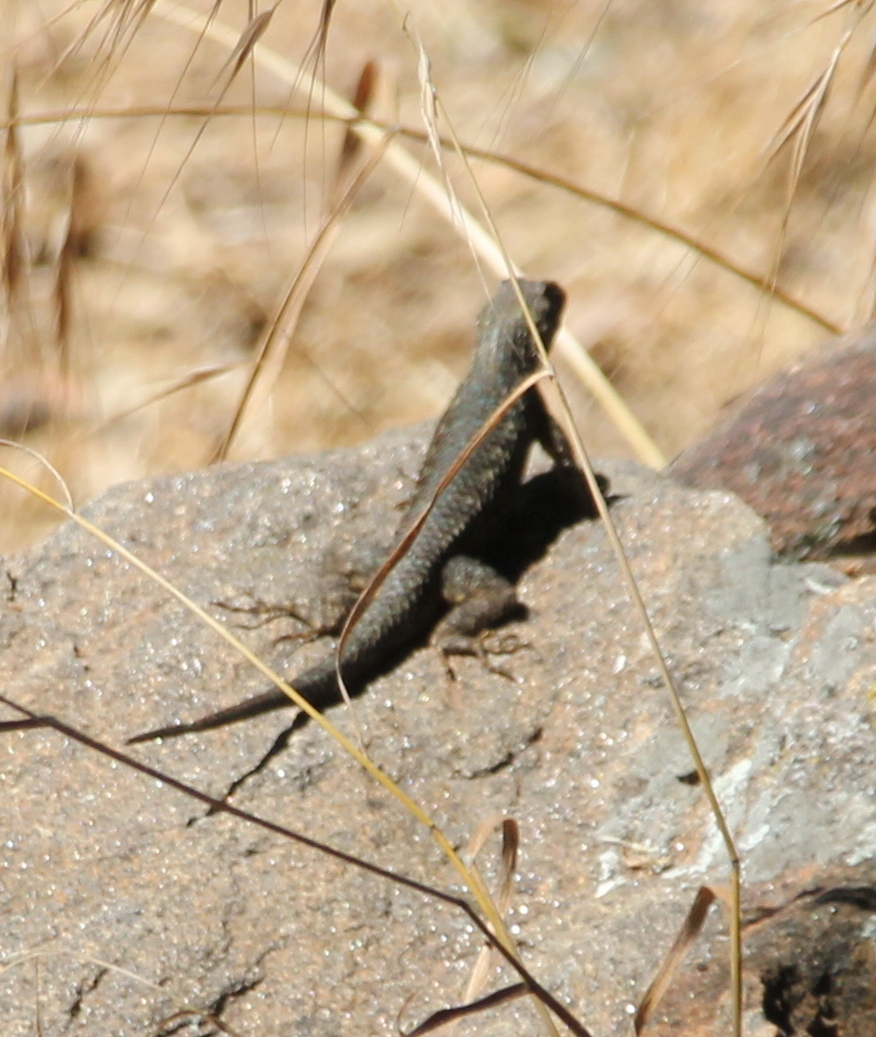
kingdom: Animalia
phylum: Chordata
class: Squamata
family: Phrynosomatidae
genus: Sceloporus
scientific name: Sceloporus occidentalis
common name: Western fence lizard
